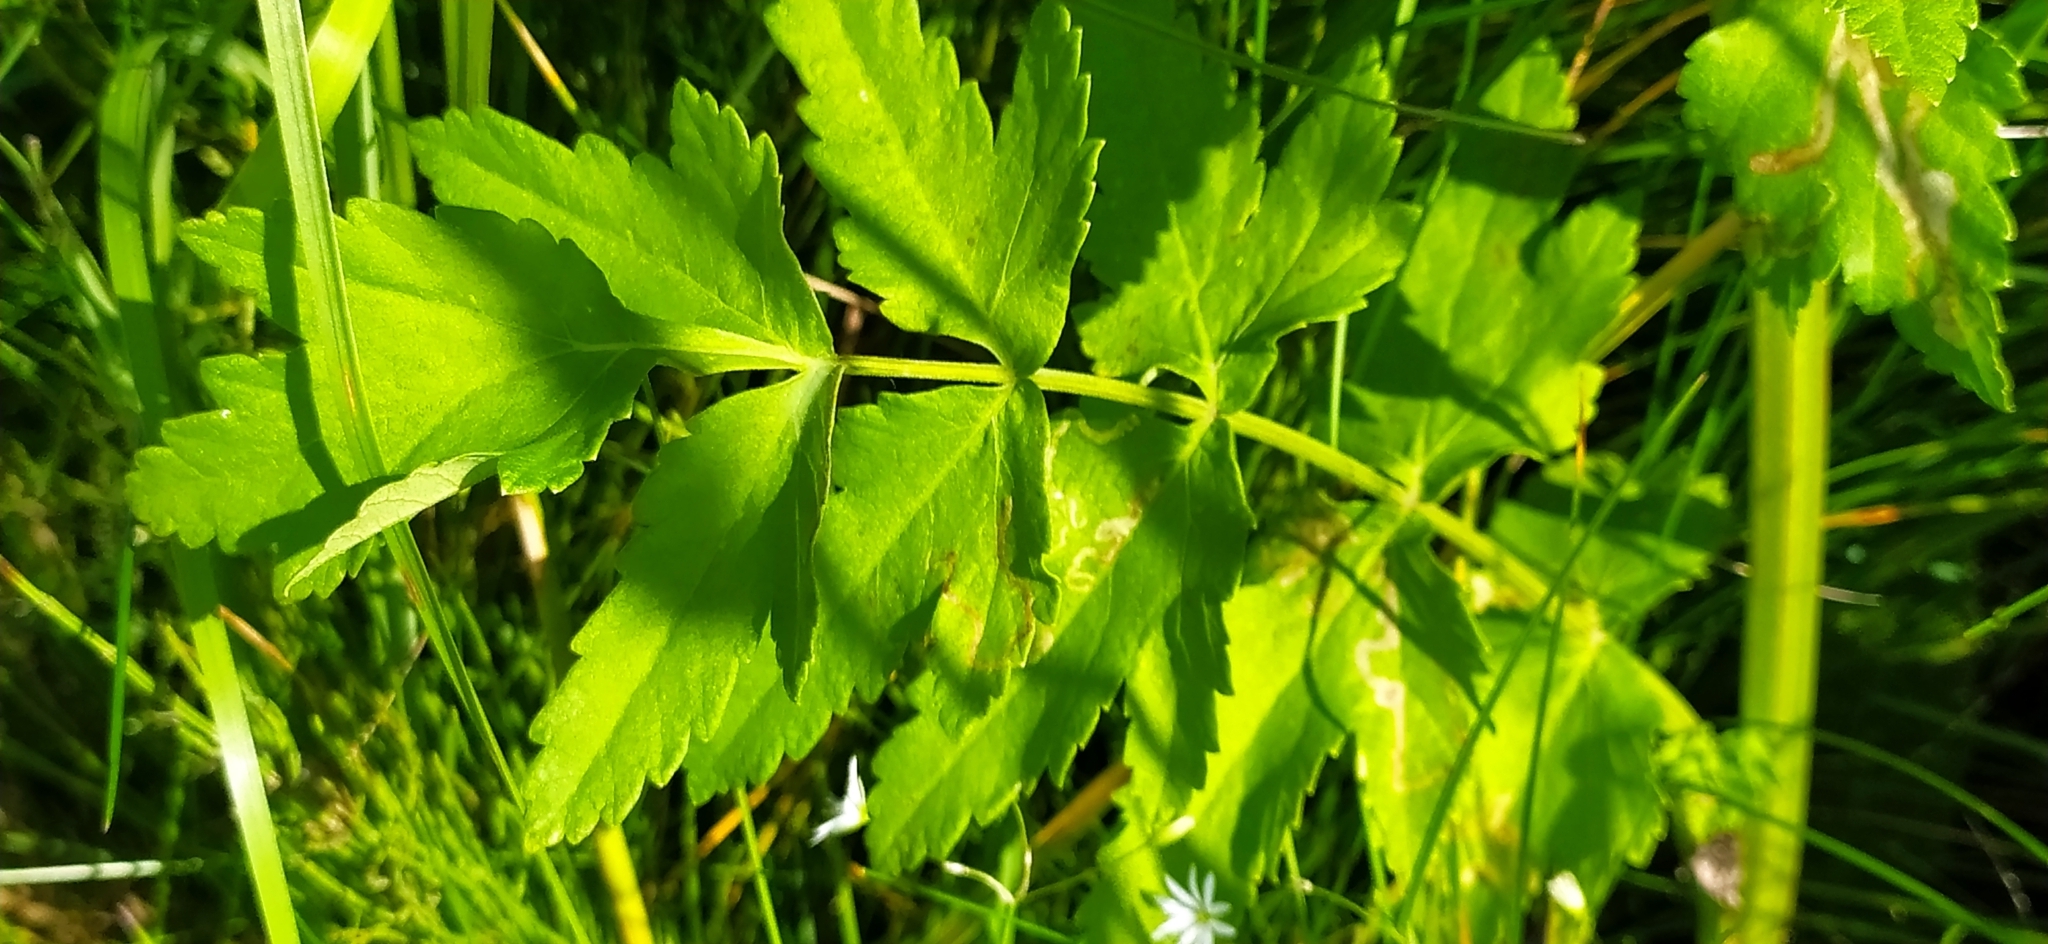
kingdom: Plantae
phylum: Tracheophyta
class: Magnoliopsida
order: Apiales
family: Apiaceae
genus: Pastinaca
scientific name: Pastinaca sativa
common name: Wild parsnip
